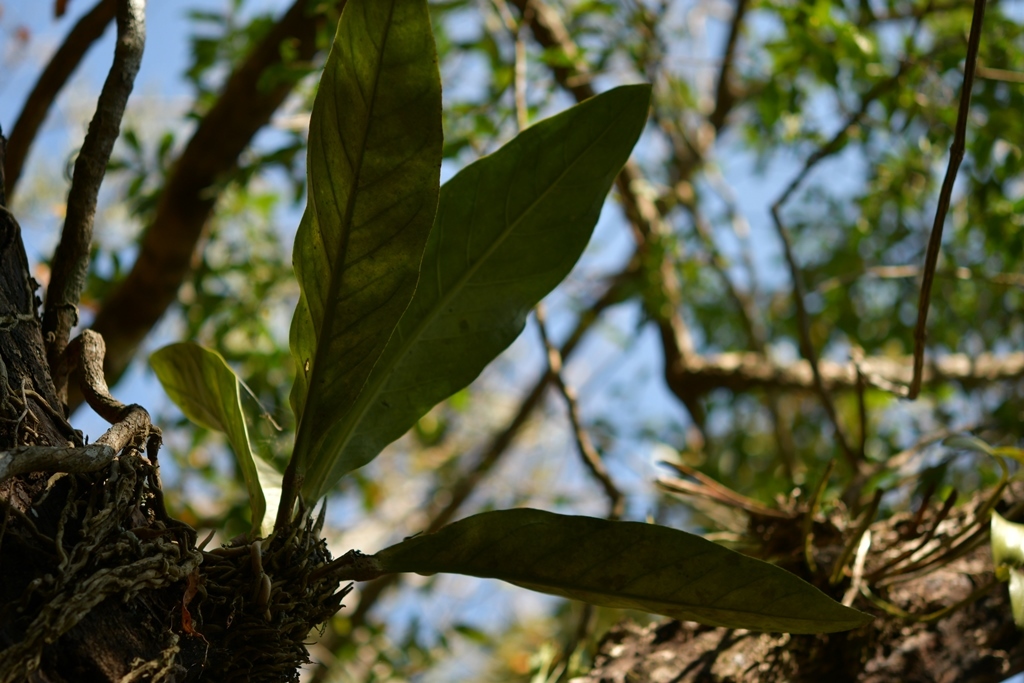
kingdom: Plantae
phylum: Tracheophyta
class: Liliopsida
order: Alismatales
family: Araceae
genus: Anthurium
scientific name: Anthurium schlechtendalii
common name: Laceleaf
